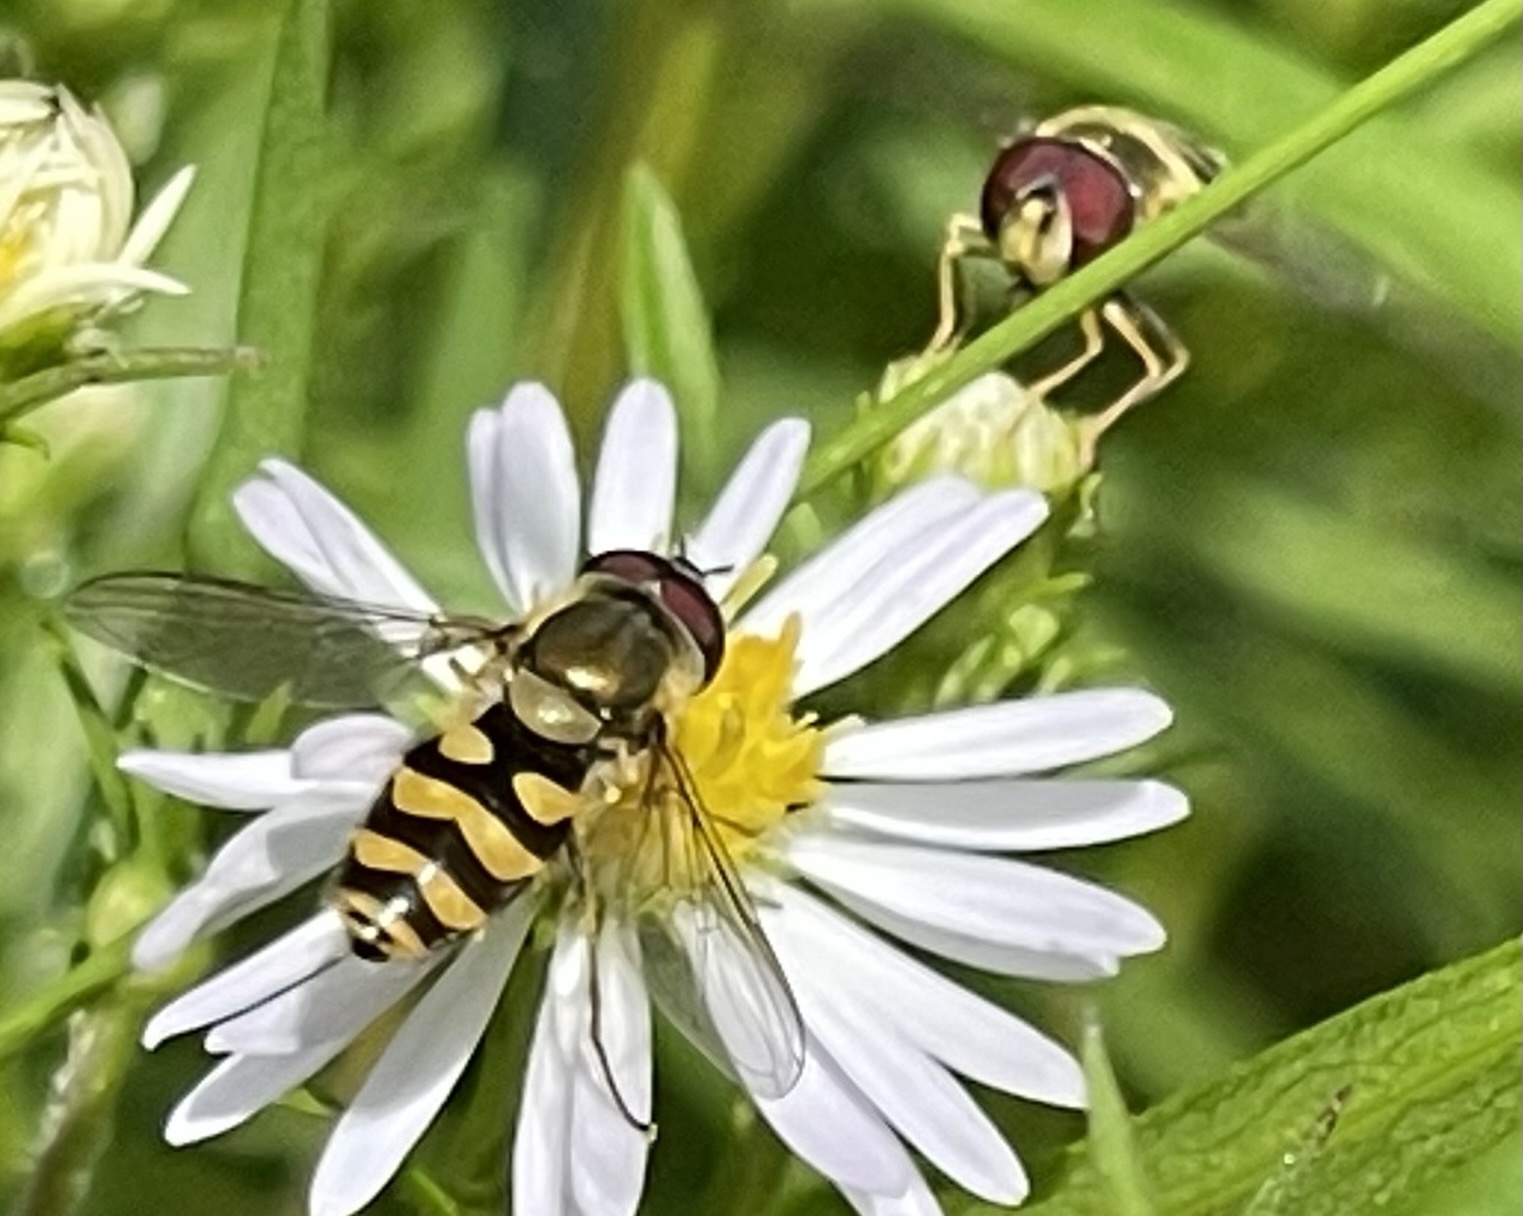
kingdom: Animalia
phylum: Arthropoda
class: Insecta
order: Diptera
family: Syrphidae
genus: Syrphus
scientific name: Syrphus
